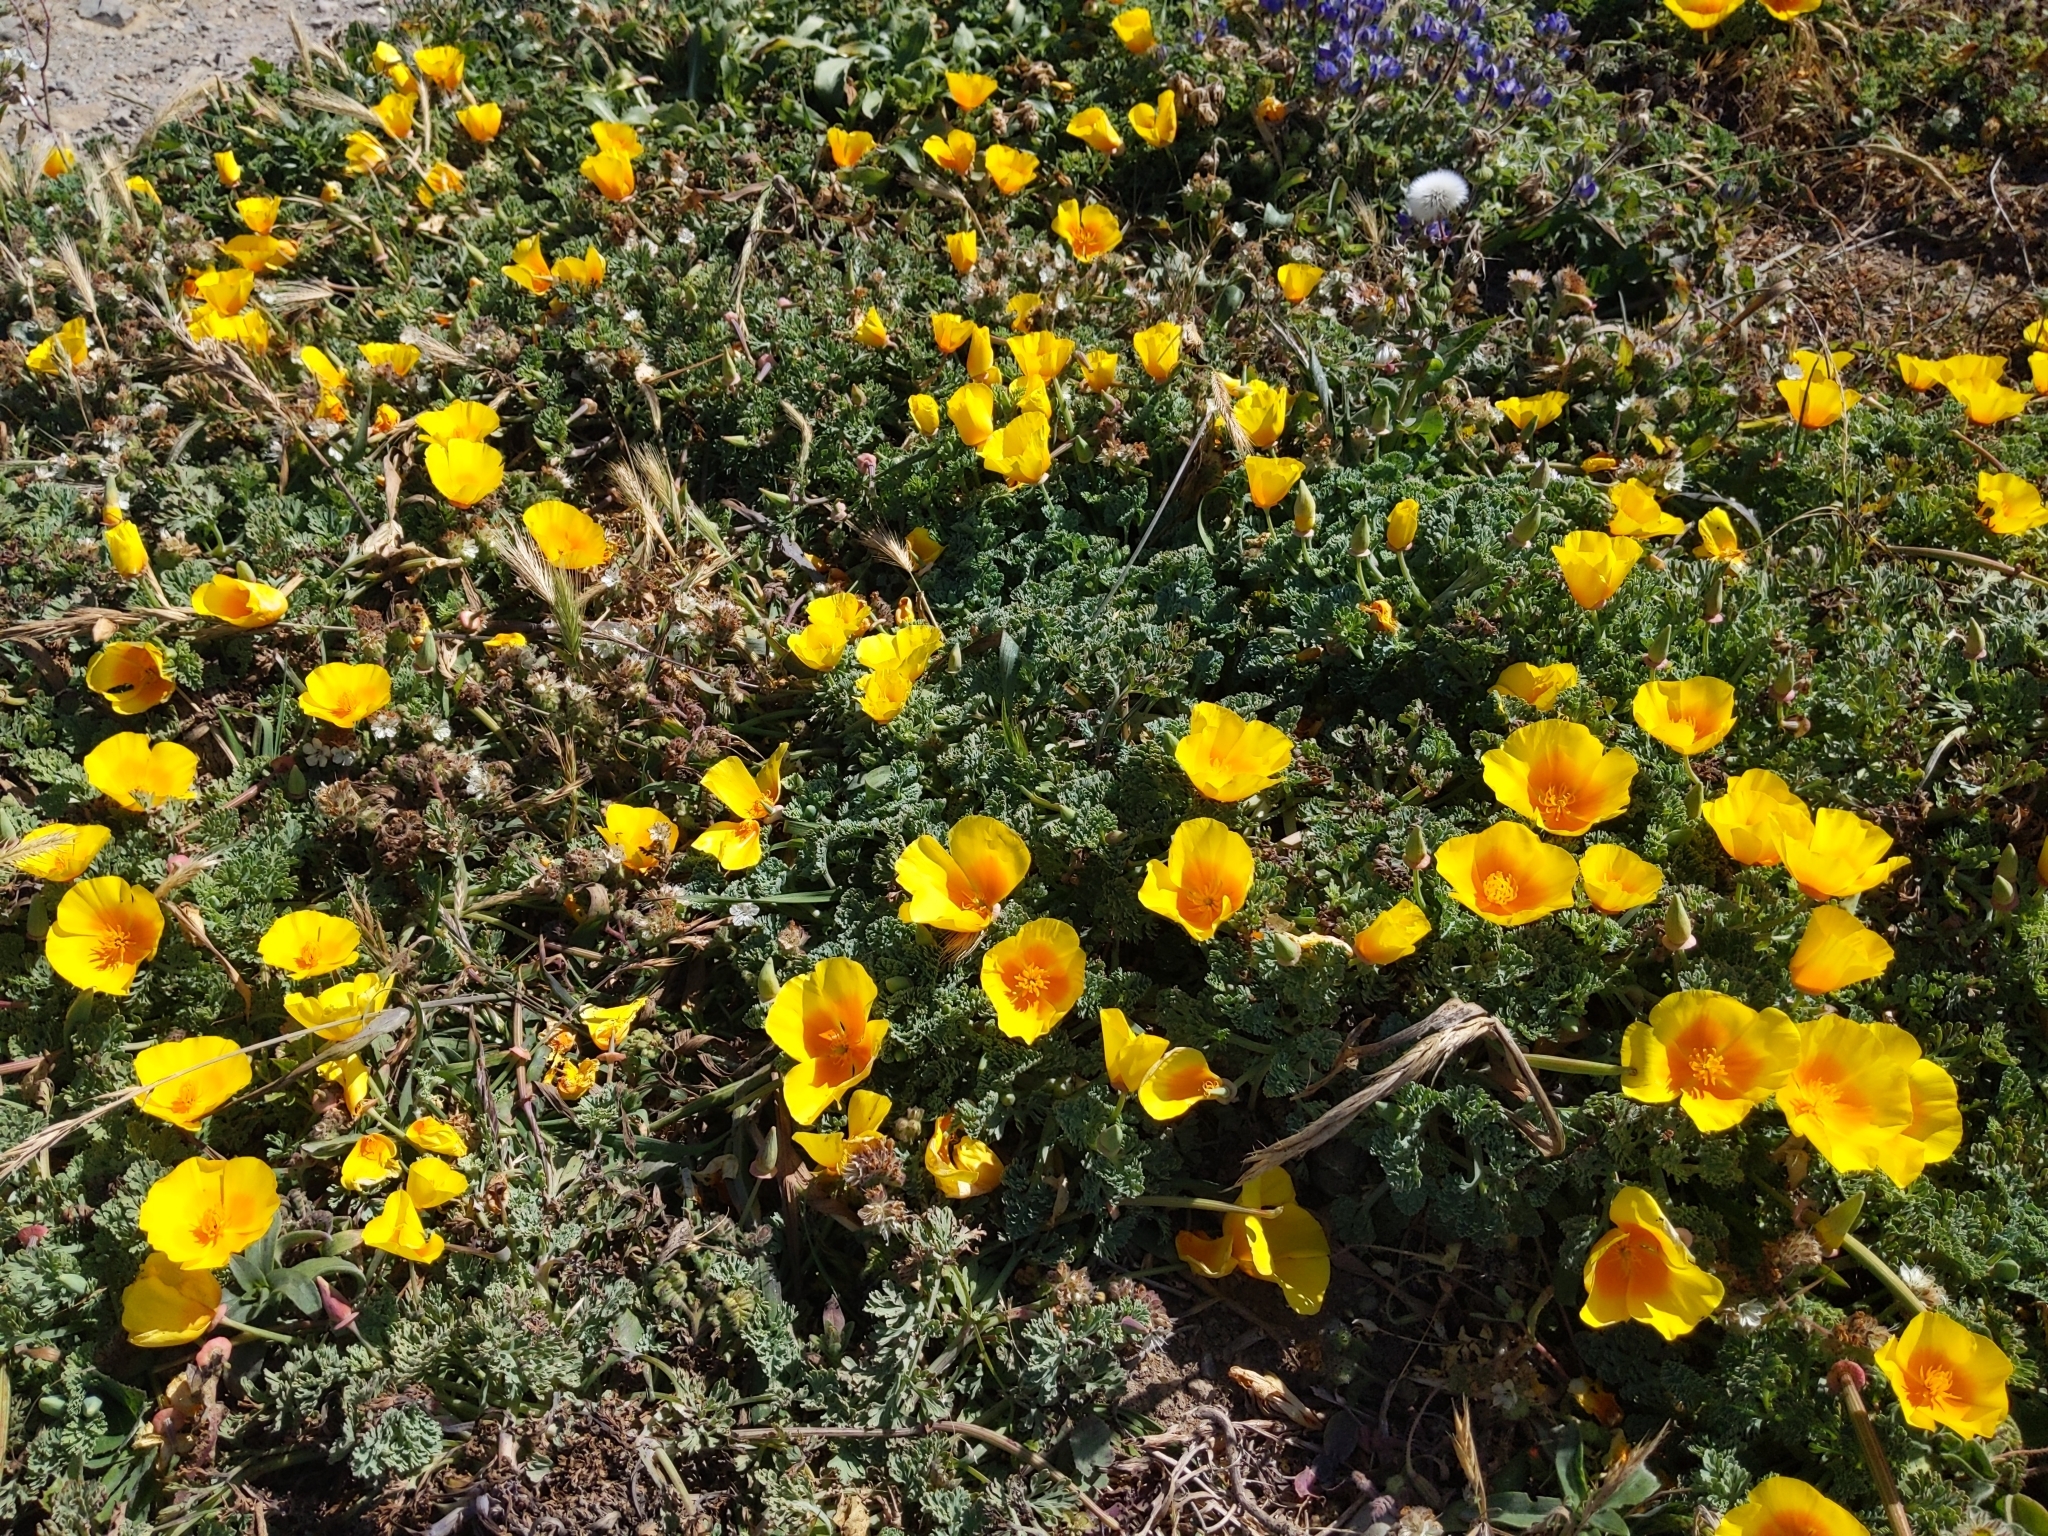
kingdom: Plantae
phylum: Tracheophyta
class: Magnoliopsida
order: Ranunculales
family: Papaveraceae
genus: Eschscholzia
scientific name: Eschscholzia californica
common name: California poppy
